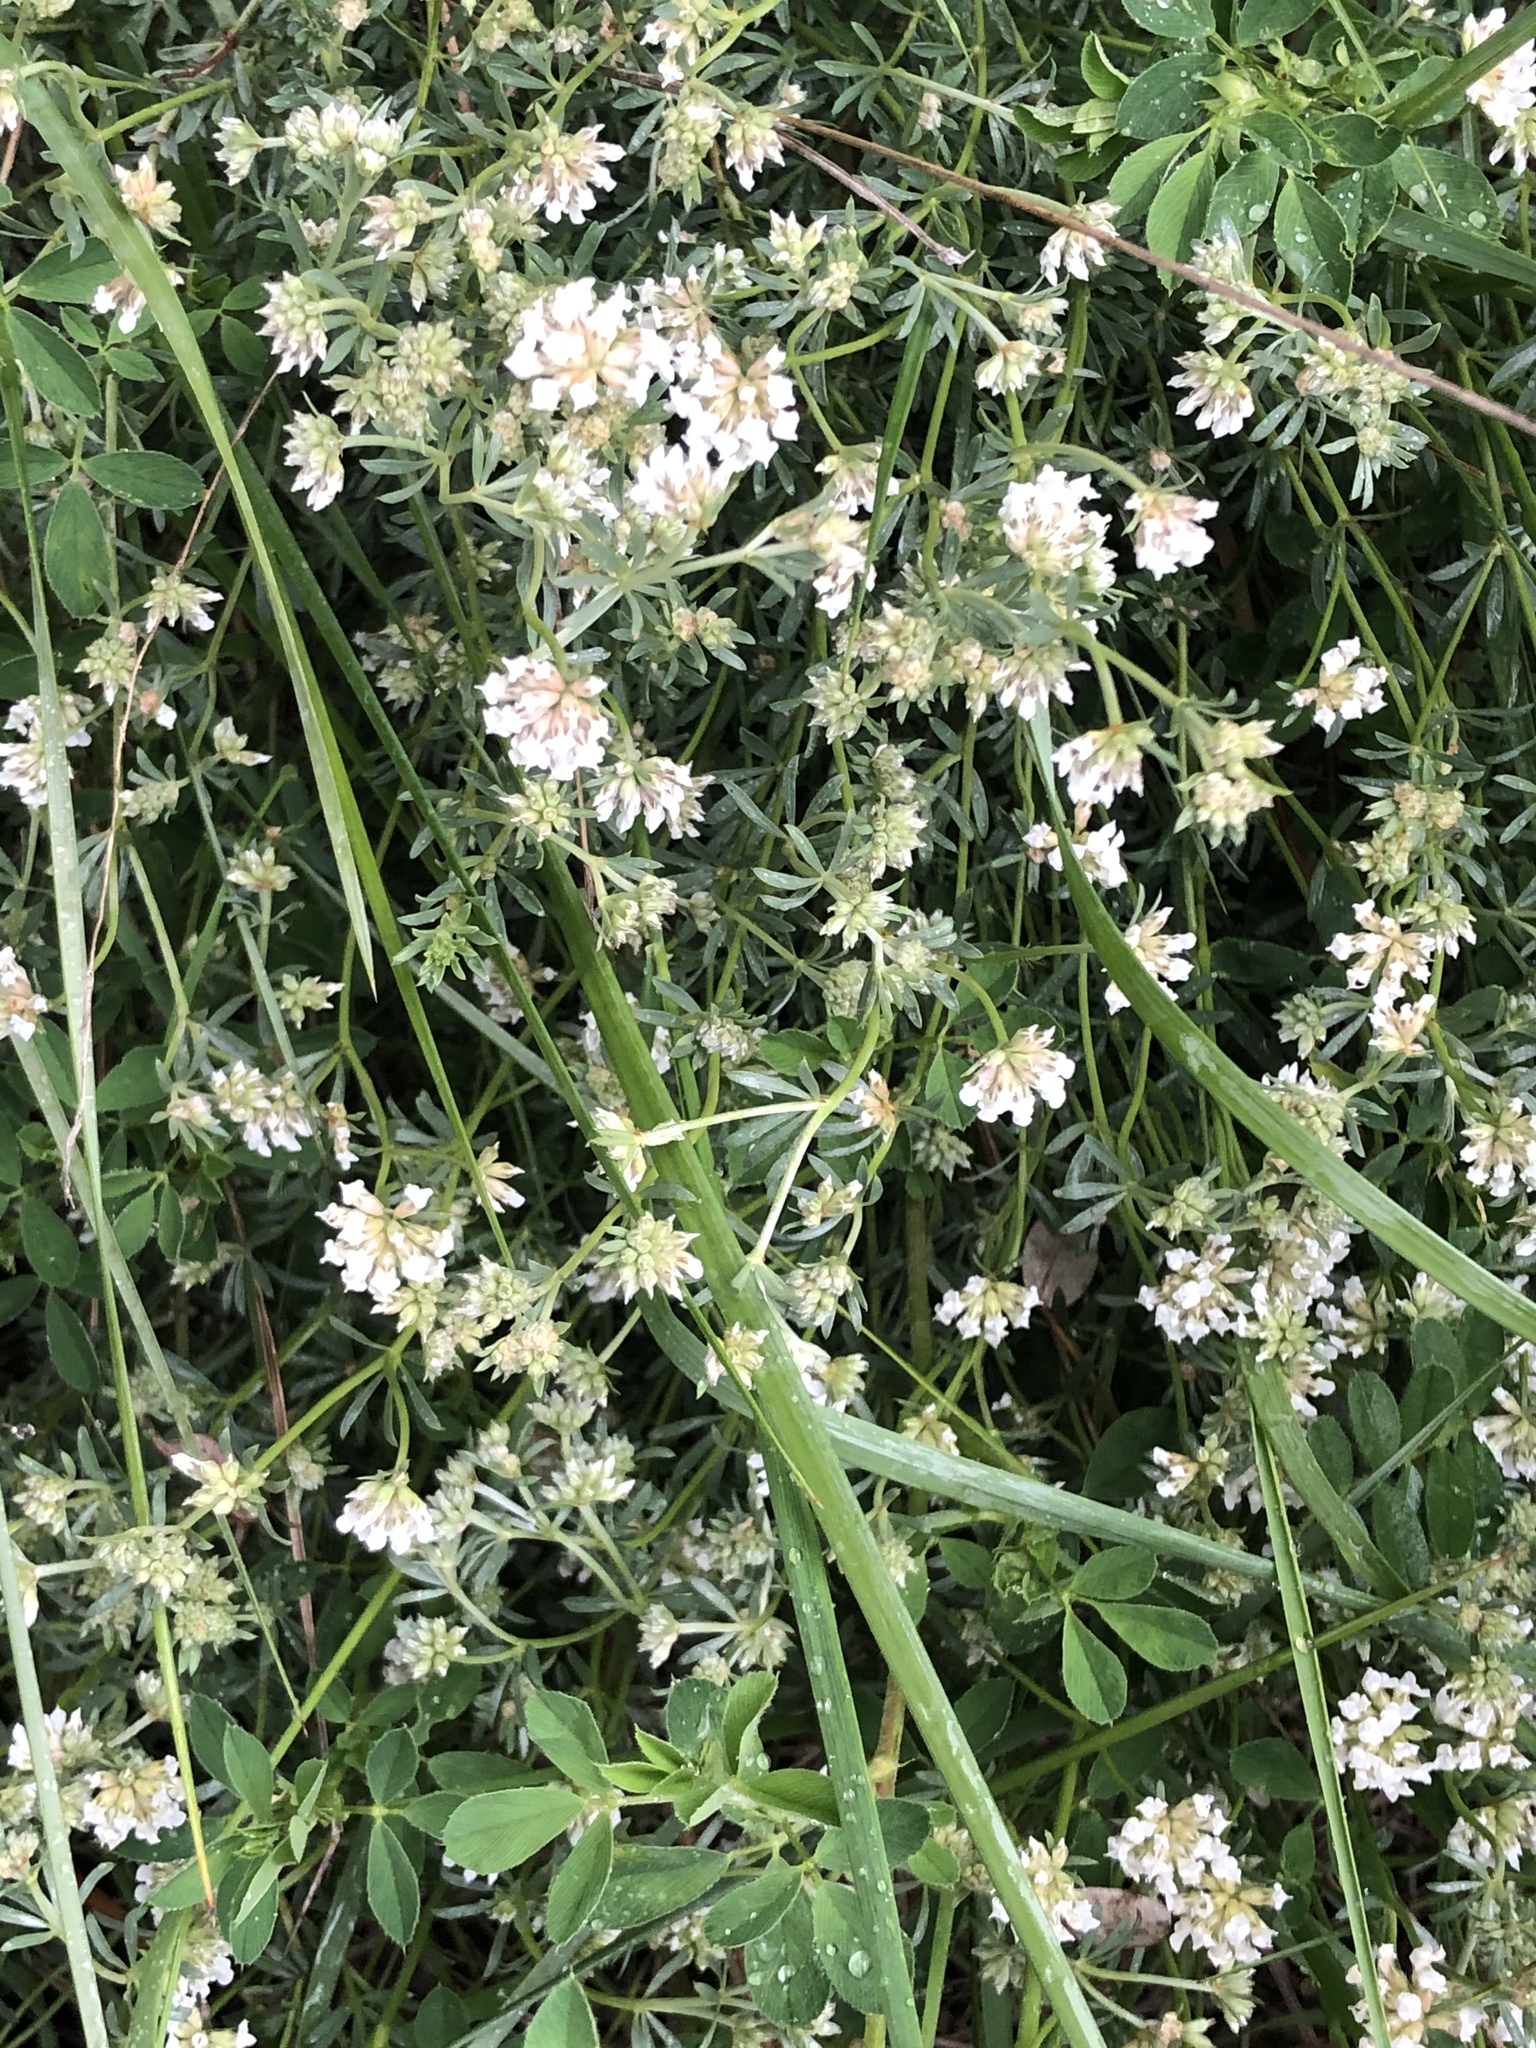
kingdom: Plantae
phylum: Tracheophyta
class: Magnoliopsida
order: Fabales
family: Fabaceae
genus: Lotus
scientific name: Lotus dorycnium
